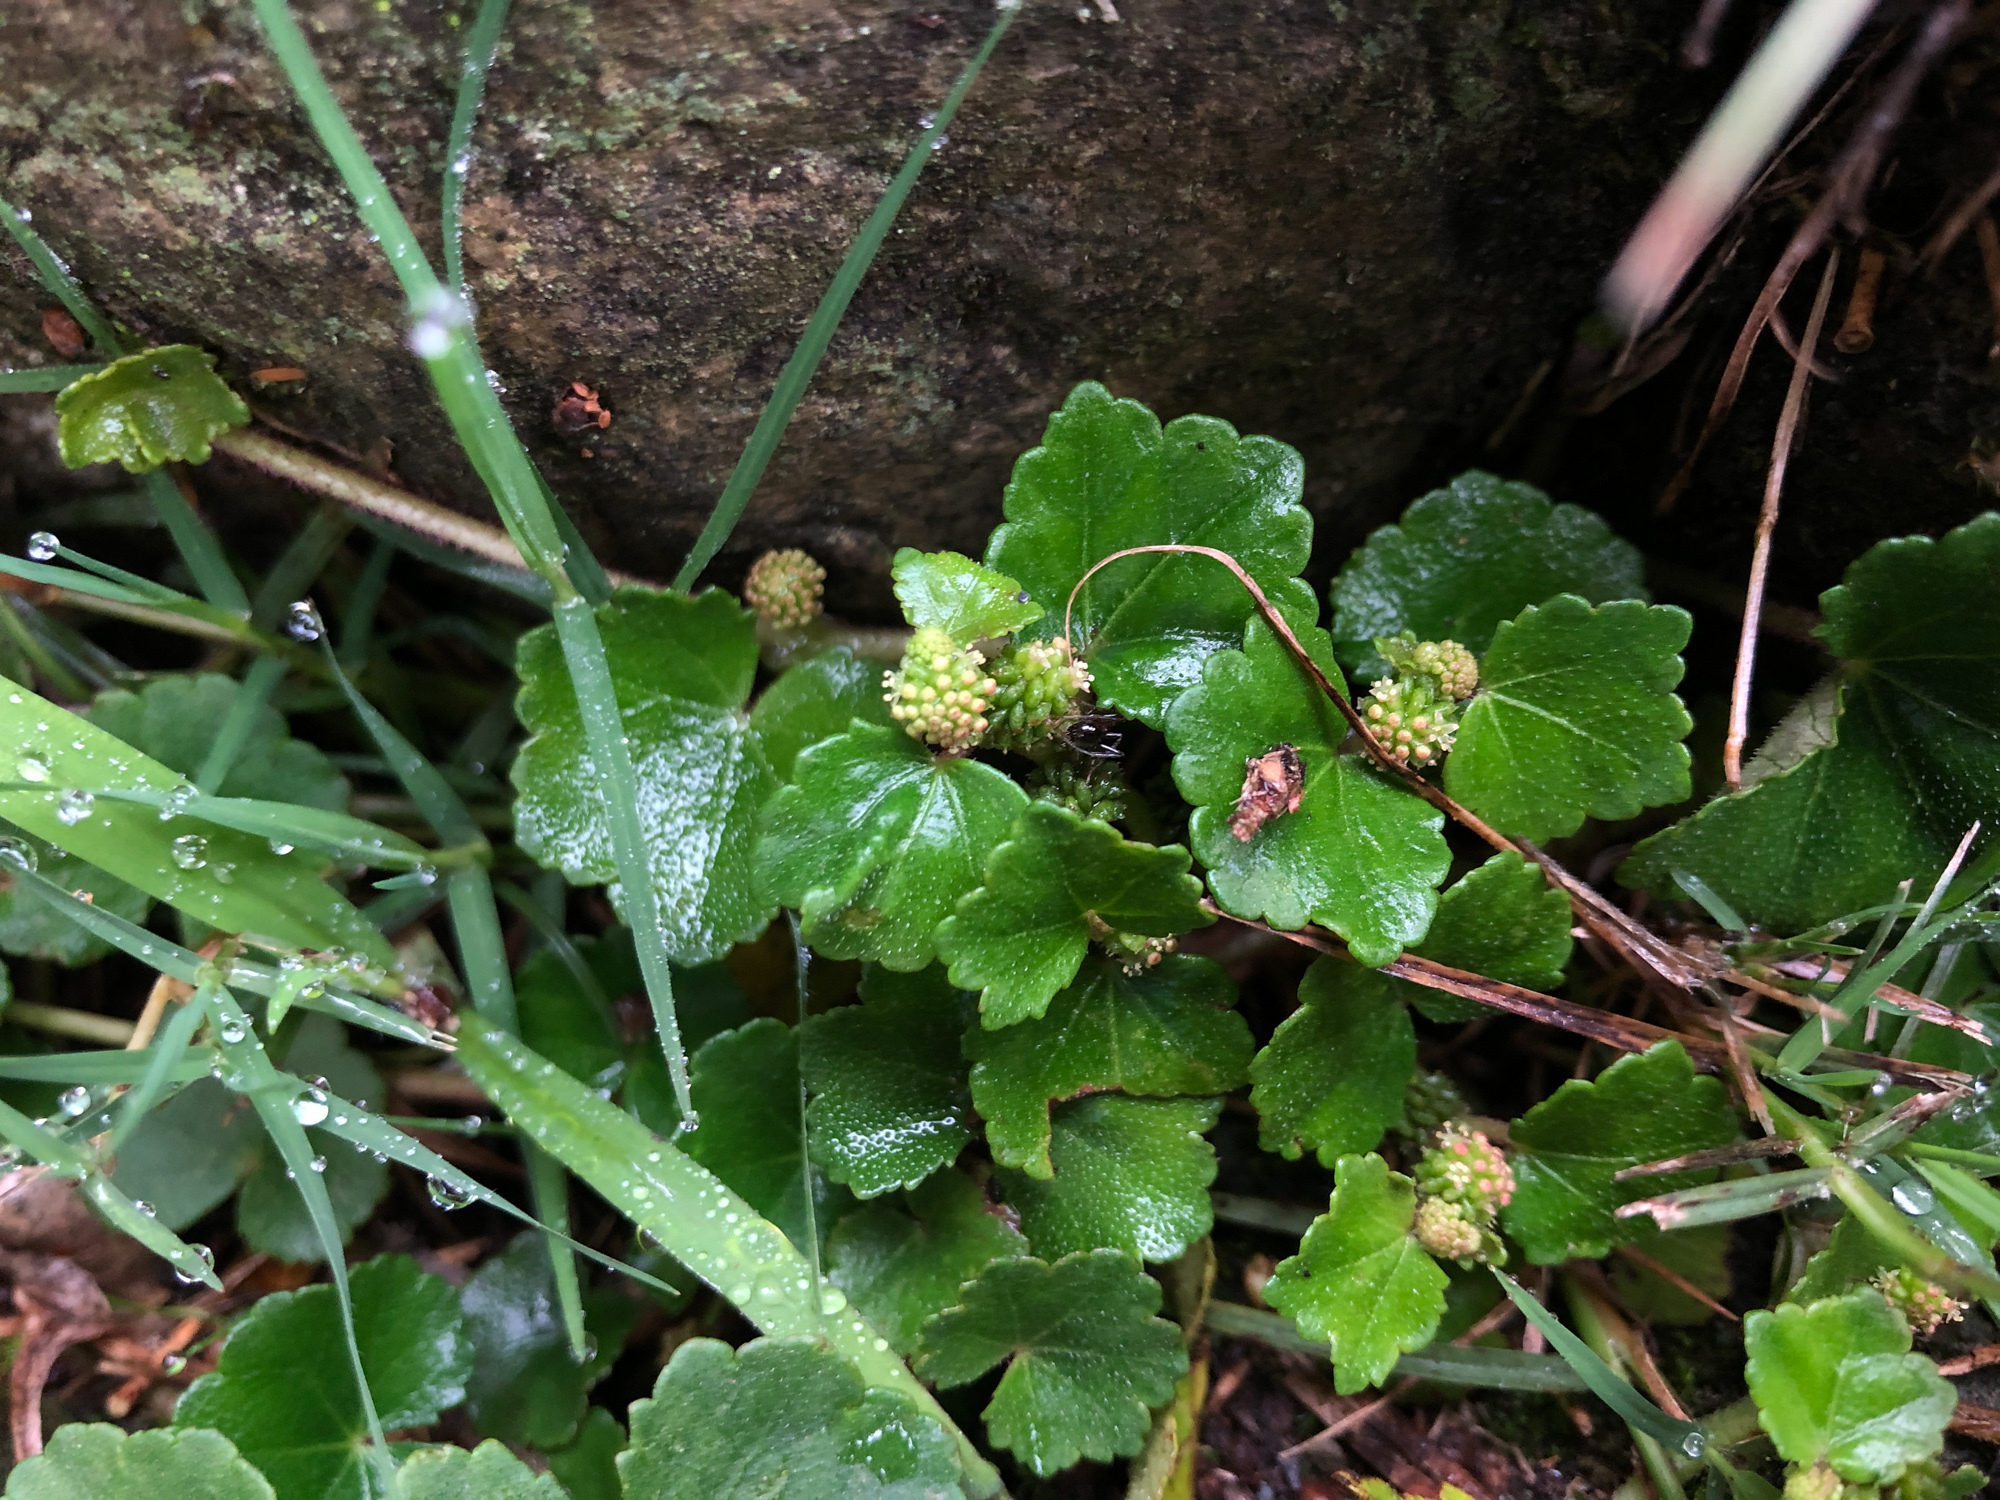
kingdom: Plantae
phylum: Tracheophyta
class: Magnoliopsida
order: Apiales
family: Araliaceae
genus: Hydrocotyle
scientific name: Hydrocotyle setulosa
